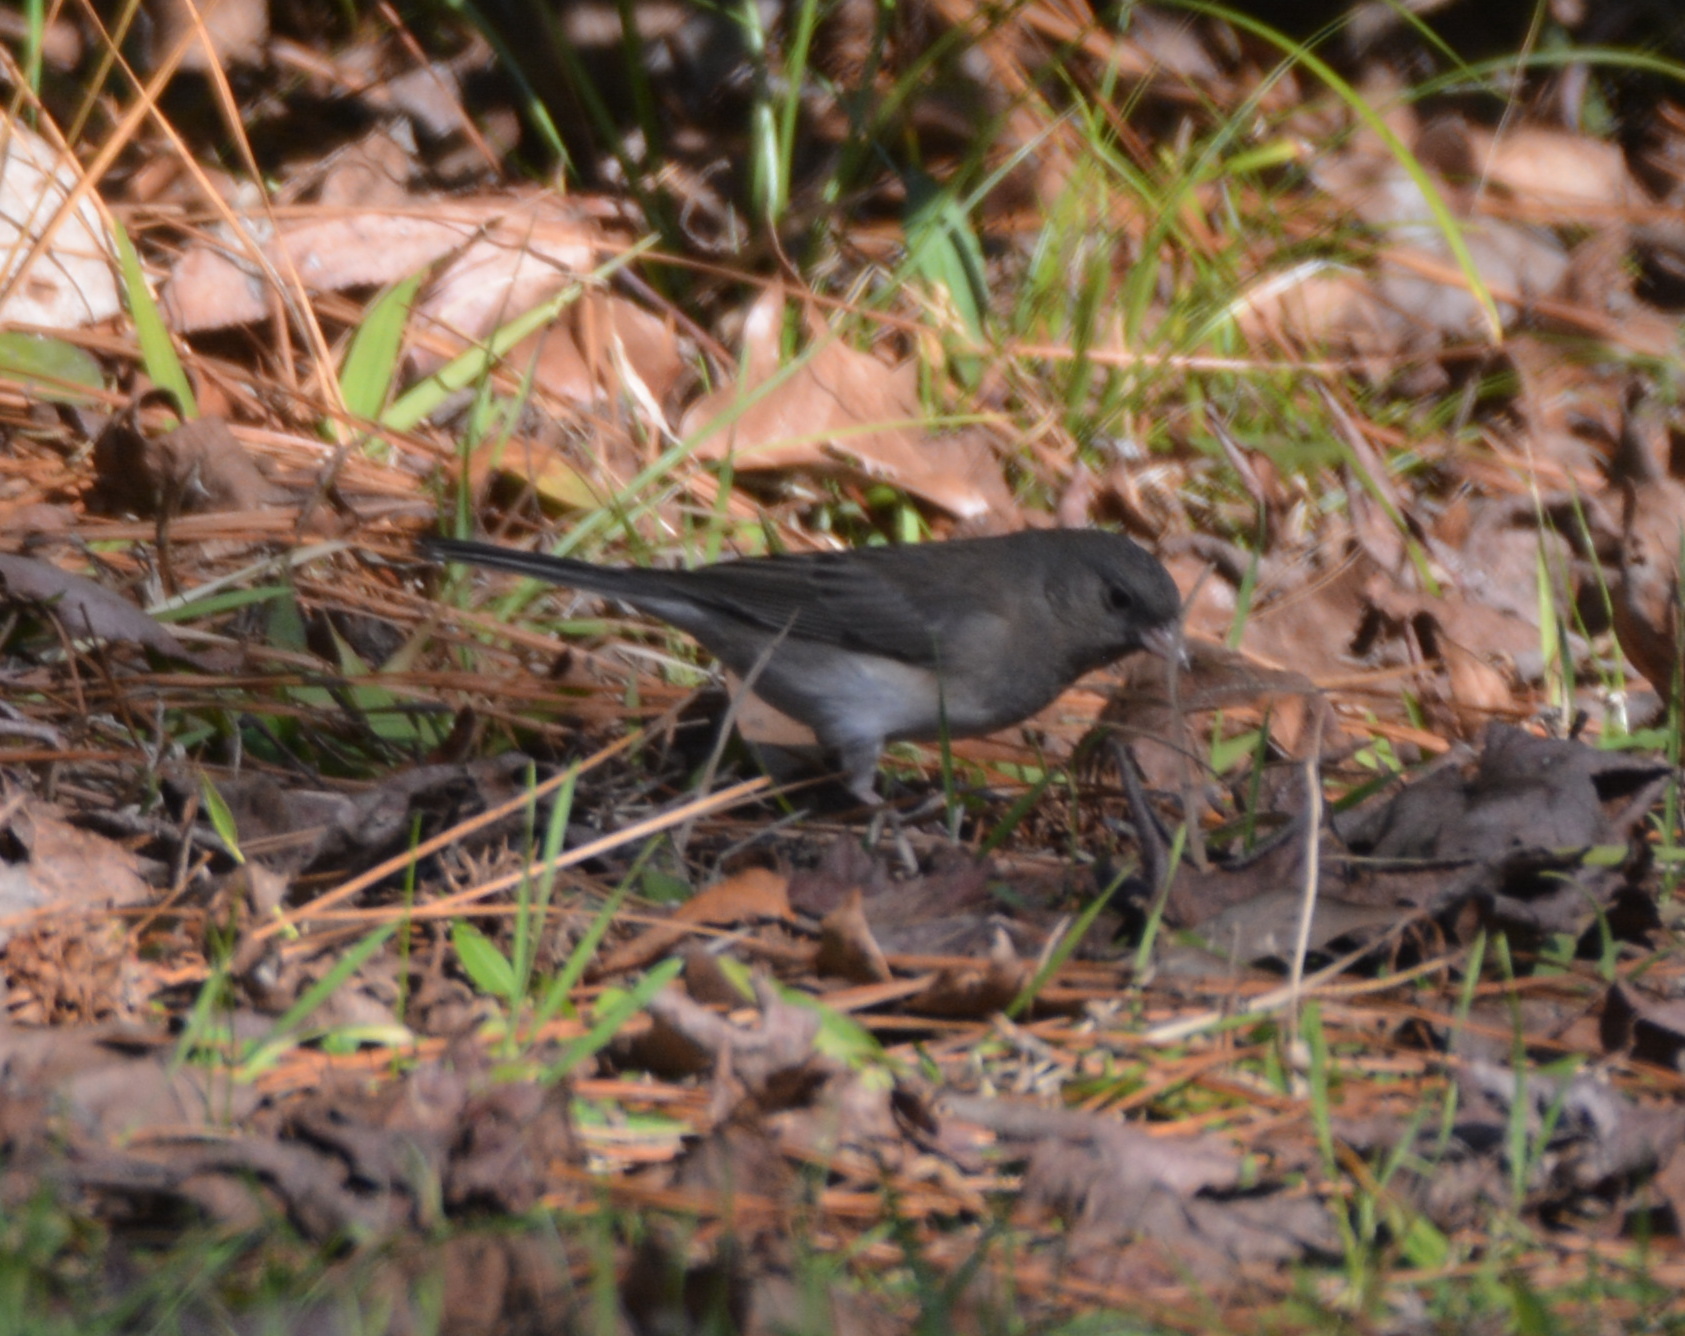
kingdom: Animalia
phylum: Chordata
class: Aves
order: Passeriformes
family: Passerellidae
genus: Junco
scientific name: Junco hyemalis
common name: Dark-eyed junco
